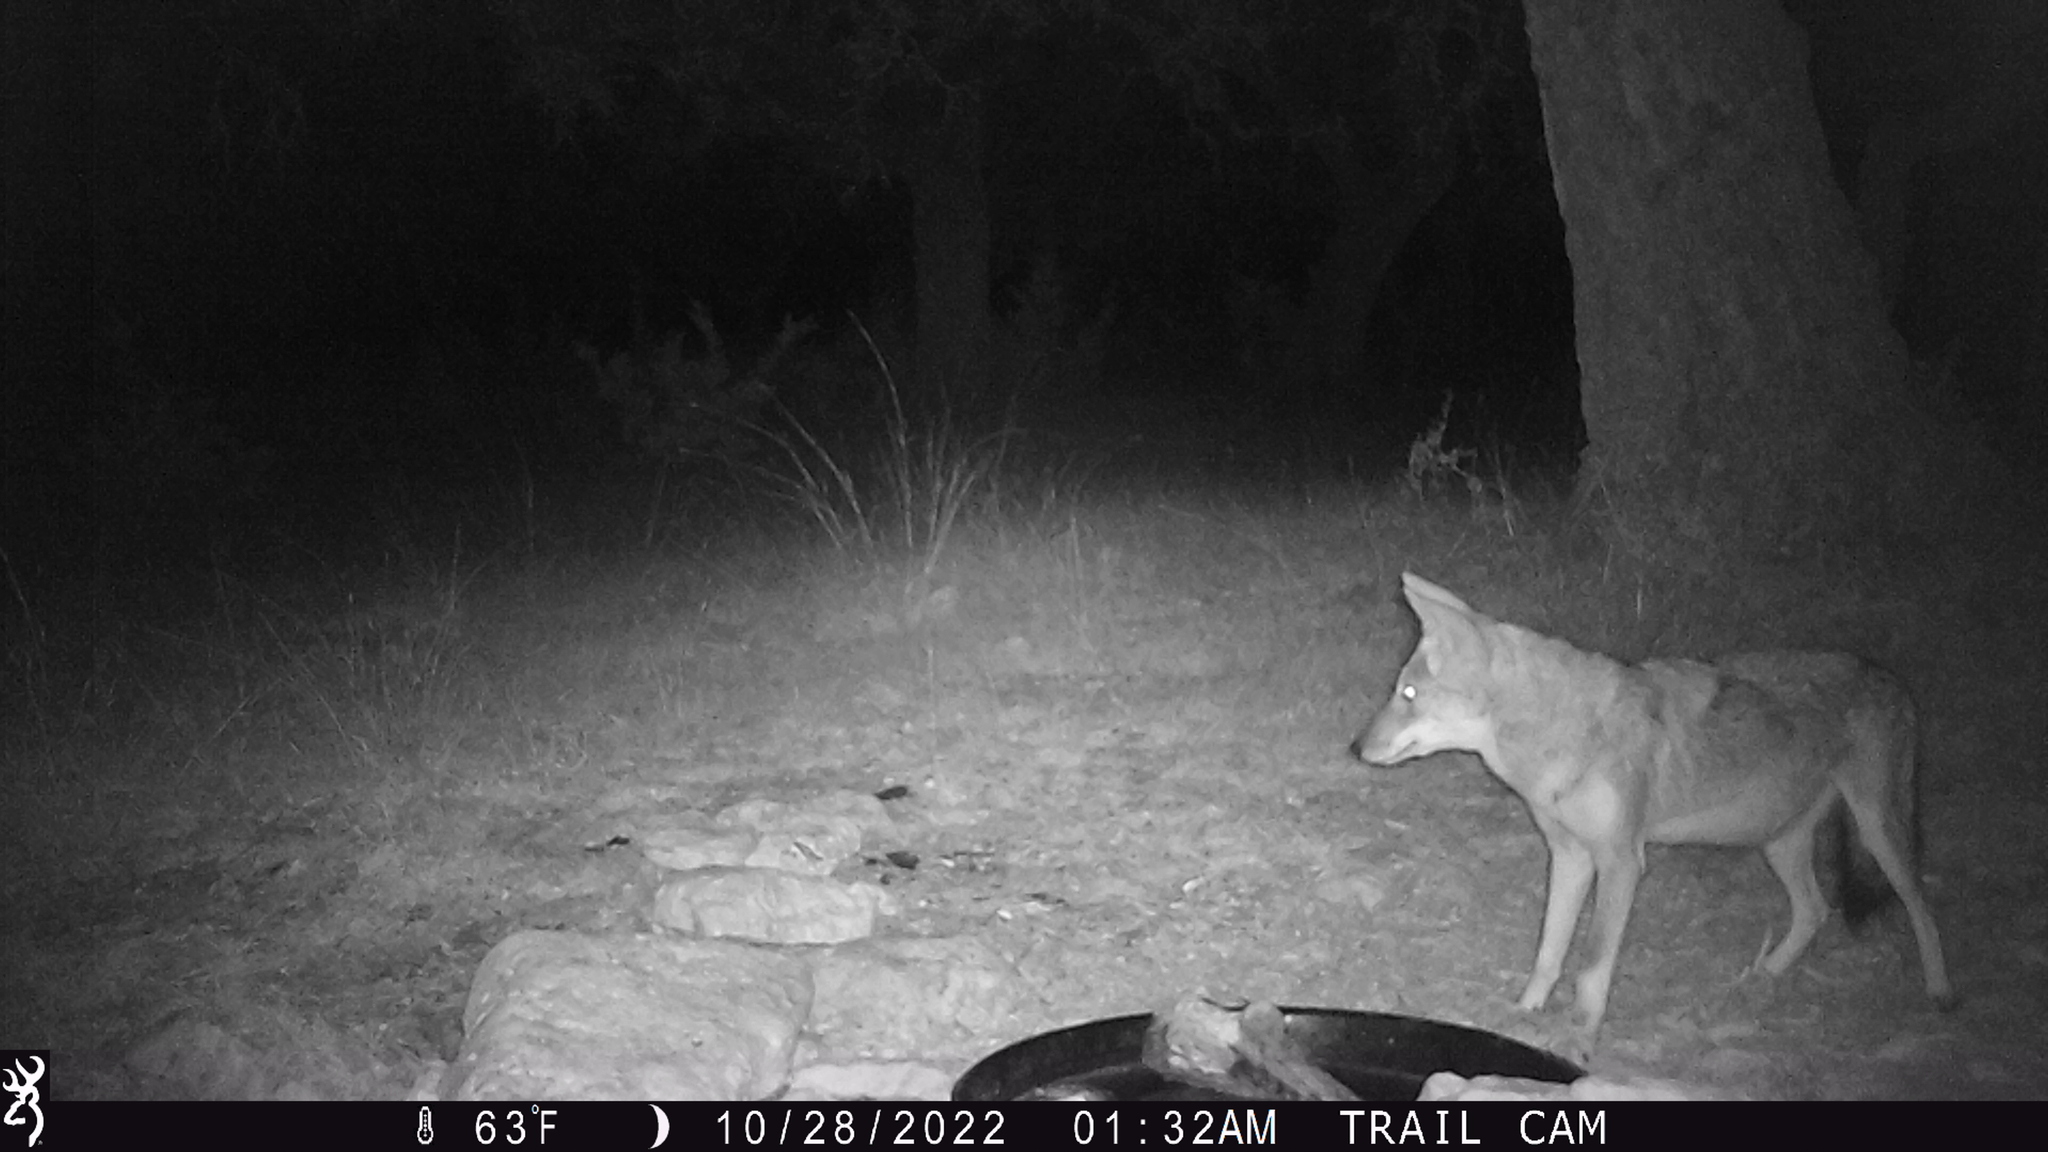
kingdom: Animalia
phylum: Chordata
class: Mammalia
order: Carnivora
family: Canidae
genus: Canis
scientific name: Canis latrans
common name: Coyote
